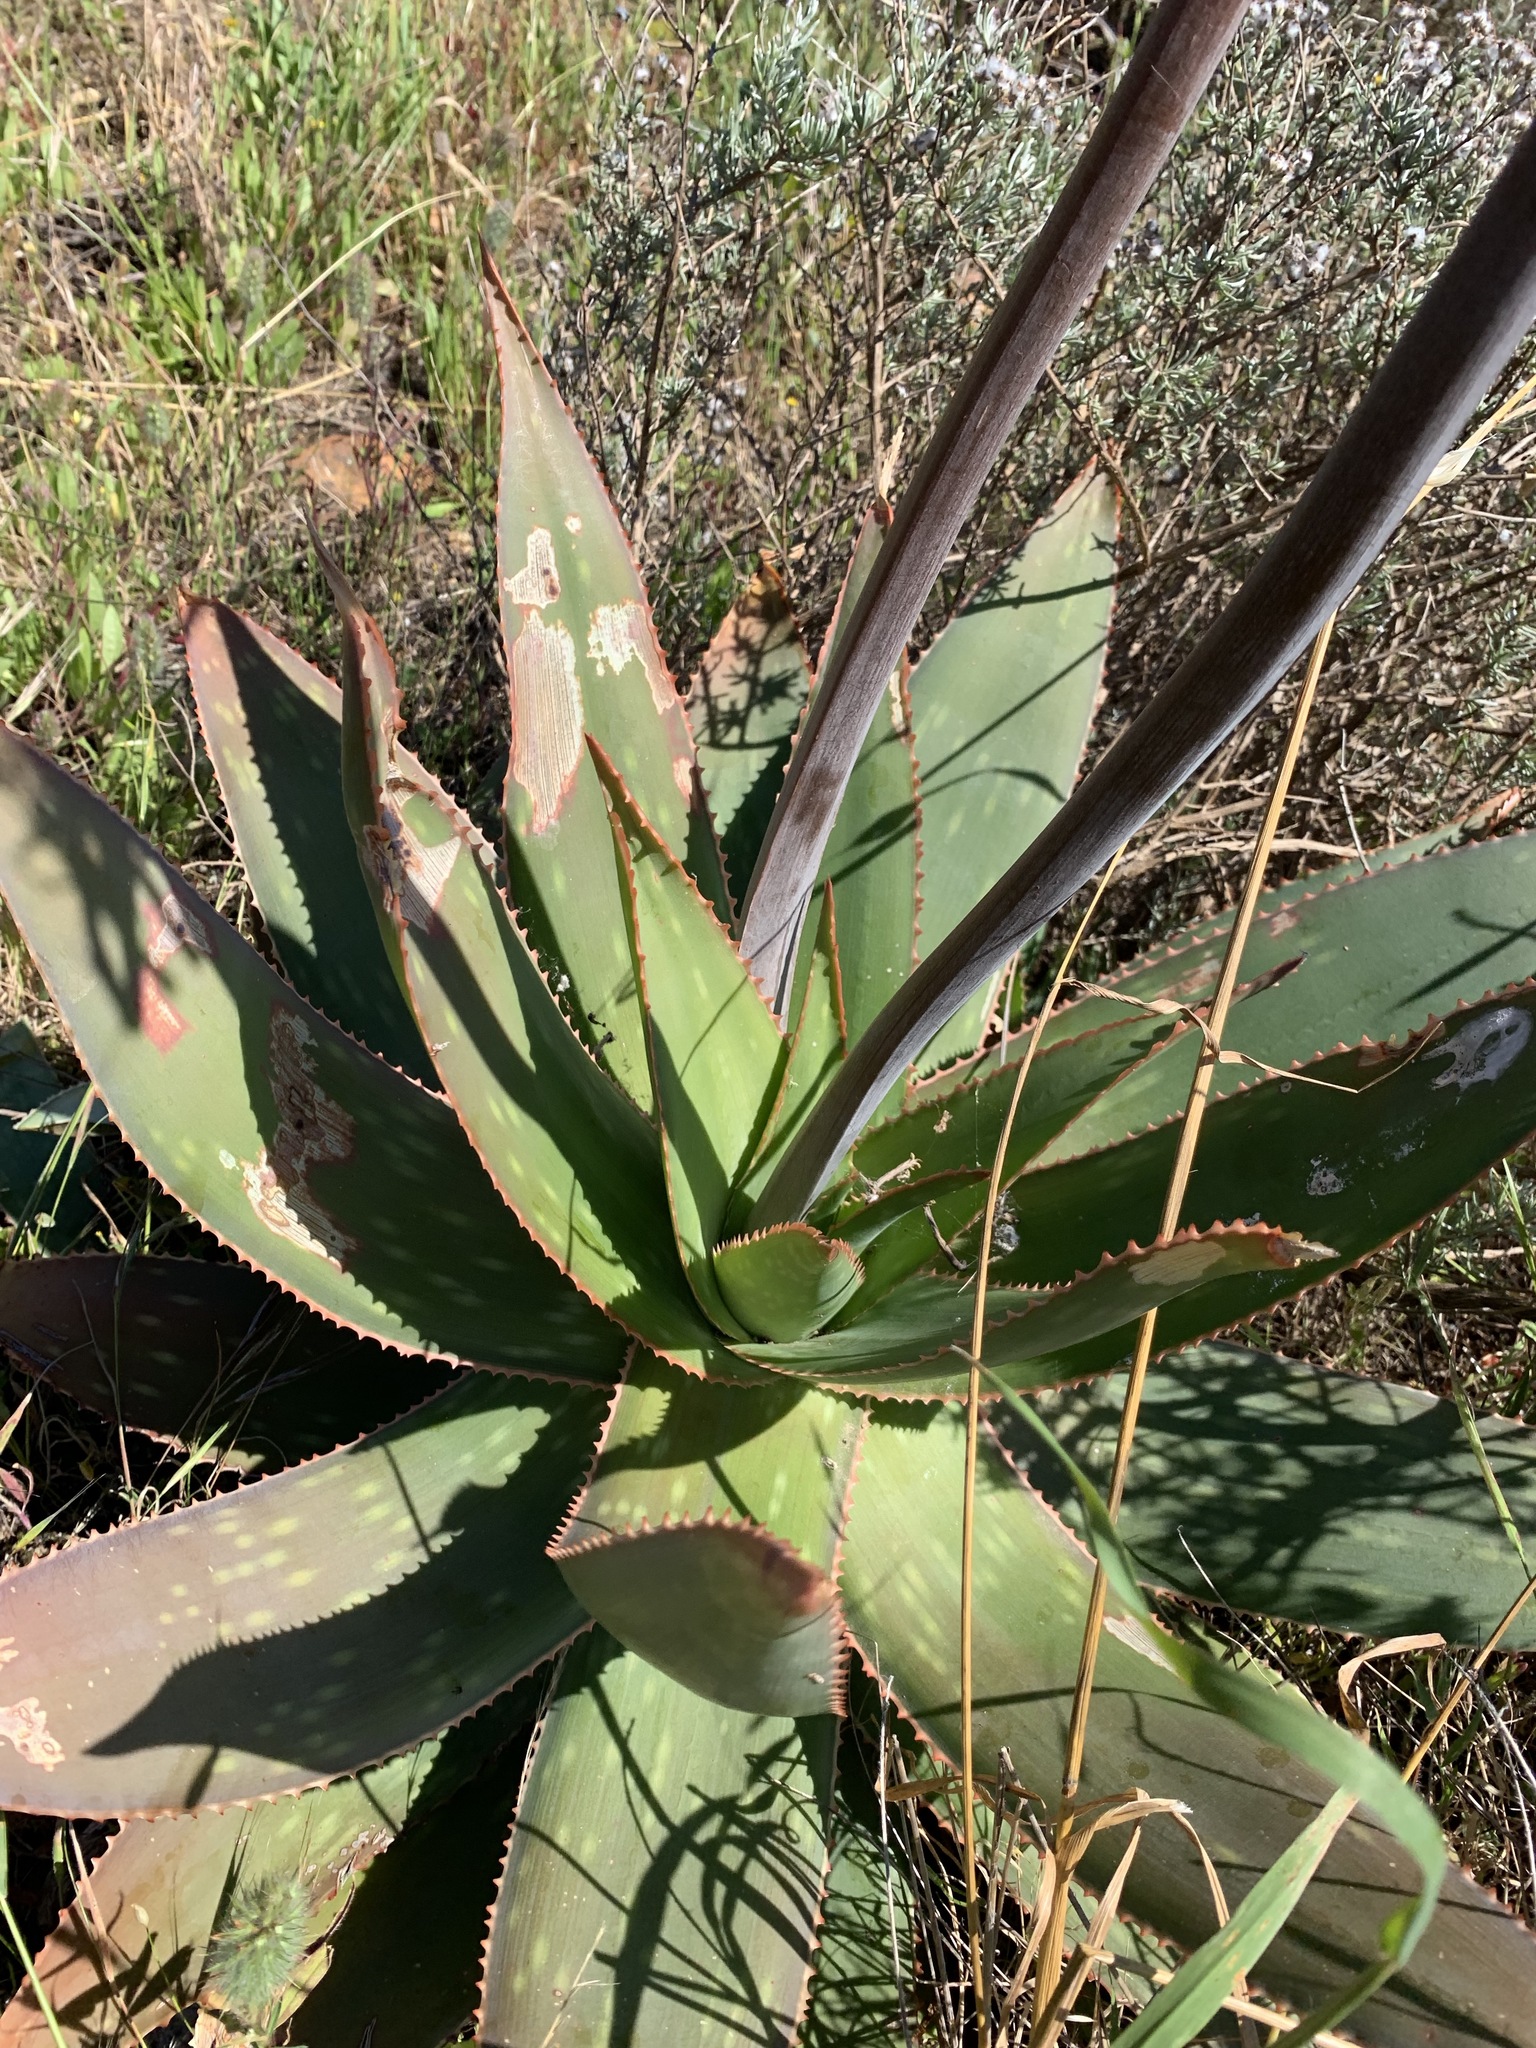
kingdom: Plantae
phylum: Tracheophyta
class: Liliopsida
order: Asparagales
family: Asphodelaceae
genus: Aloe
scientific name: Aloe schimperi
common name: Spotted aloe hybrid
